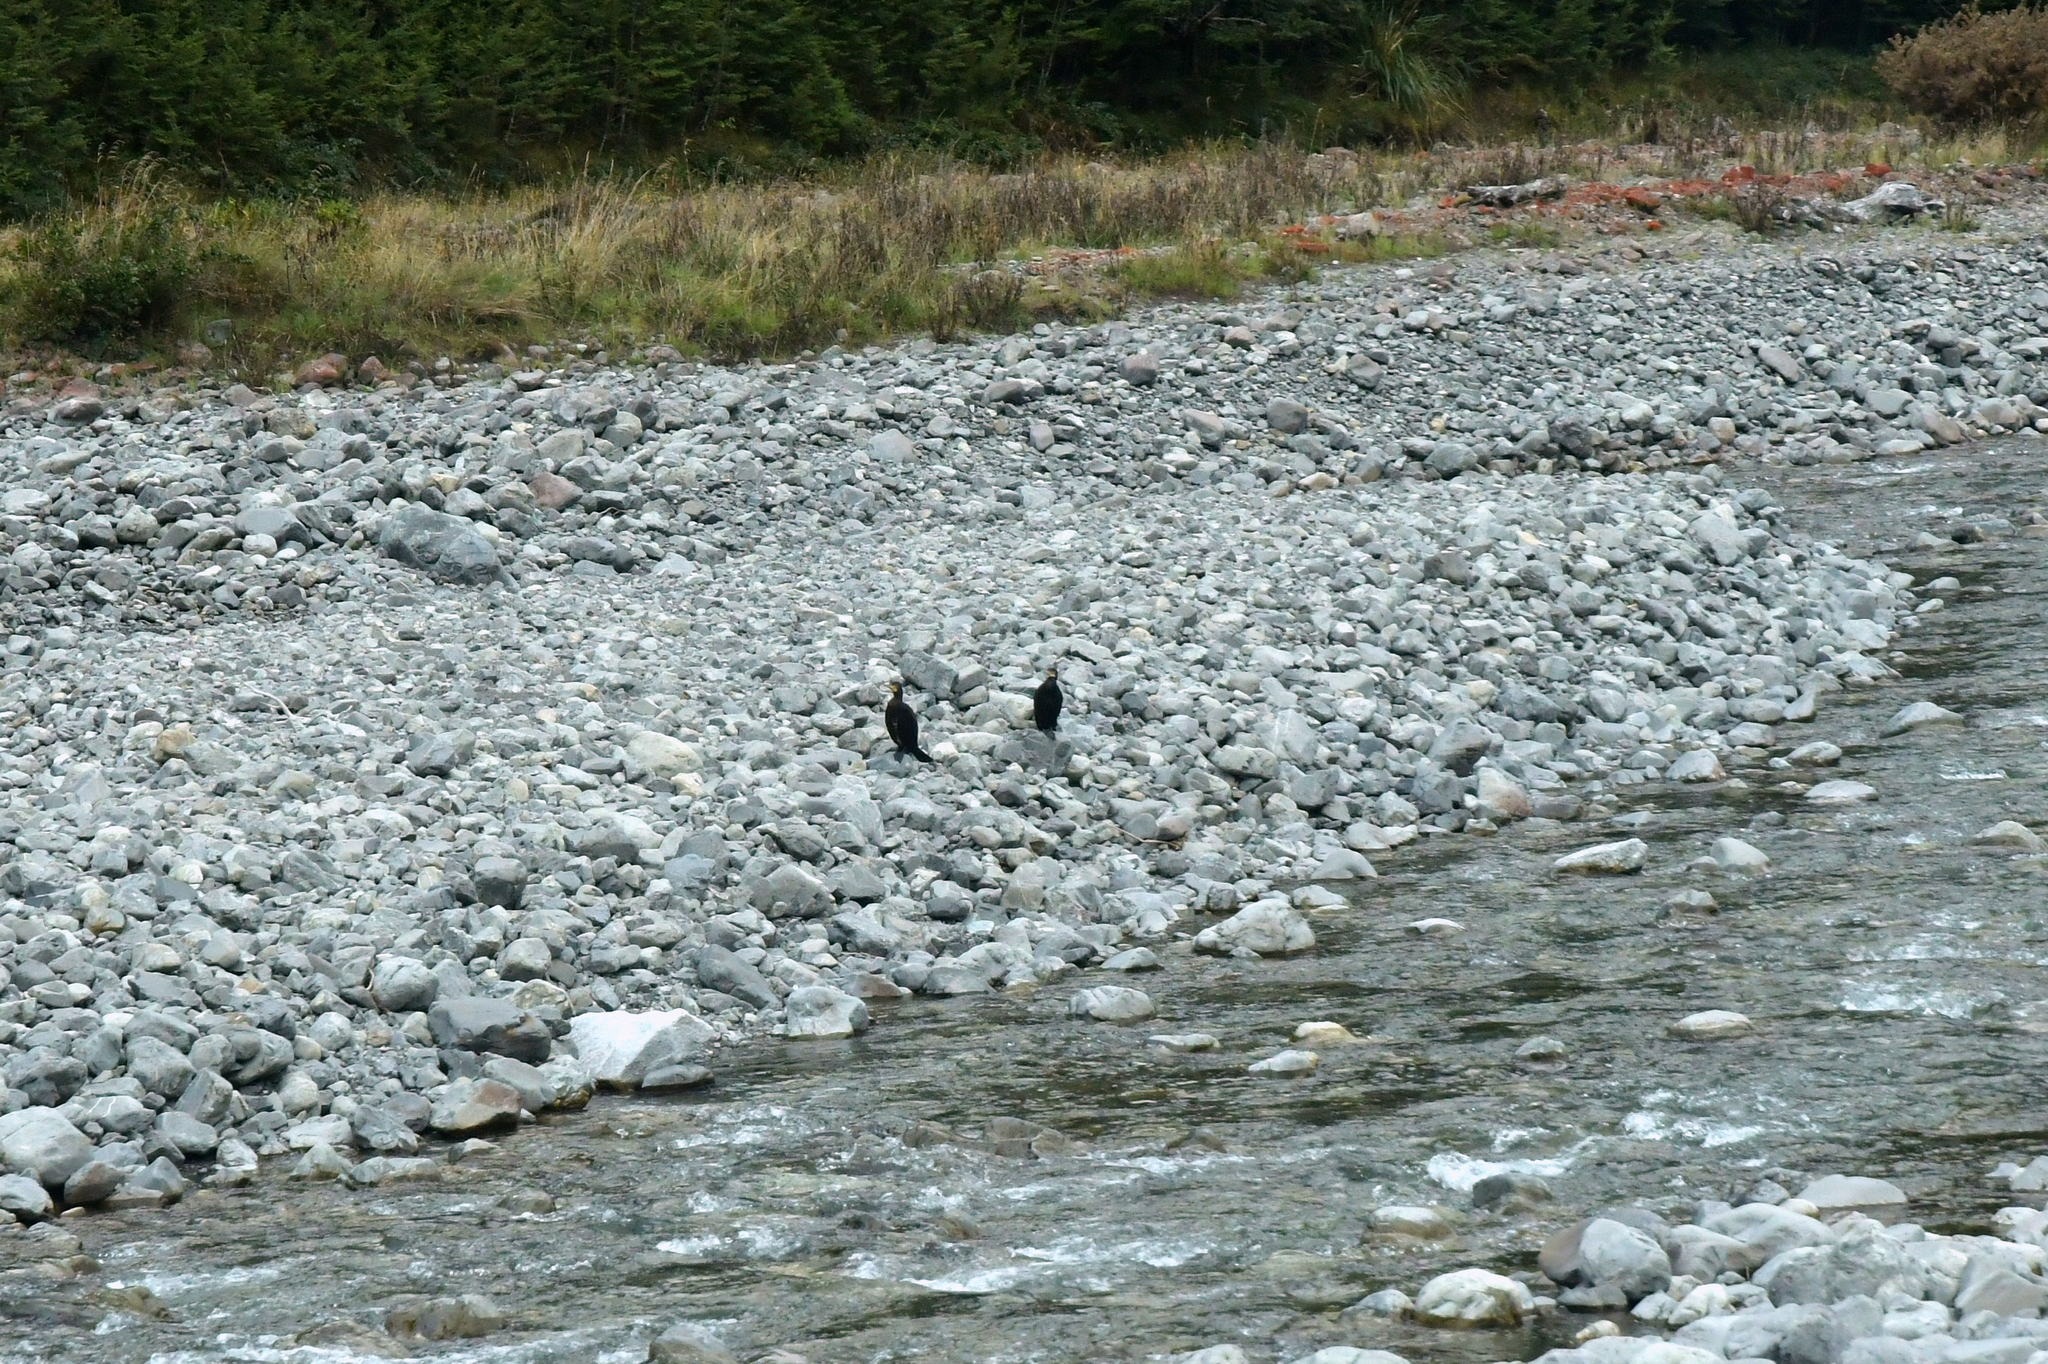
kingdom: Animalia
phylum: Chordata
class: Aves
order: Suliformes
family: Phalacrocoracidae
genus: Phalacrocorax
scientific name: Phalacrocorax carbo
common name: Great cormorant
